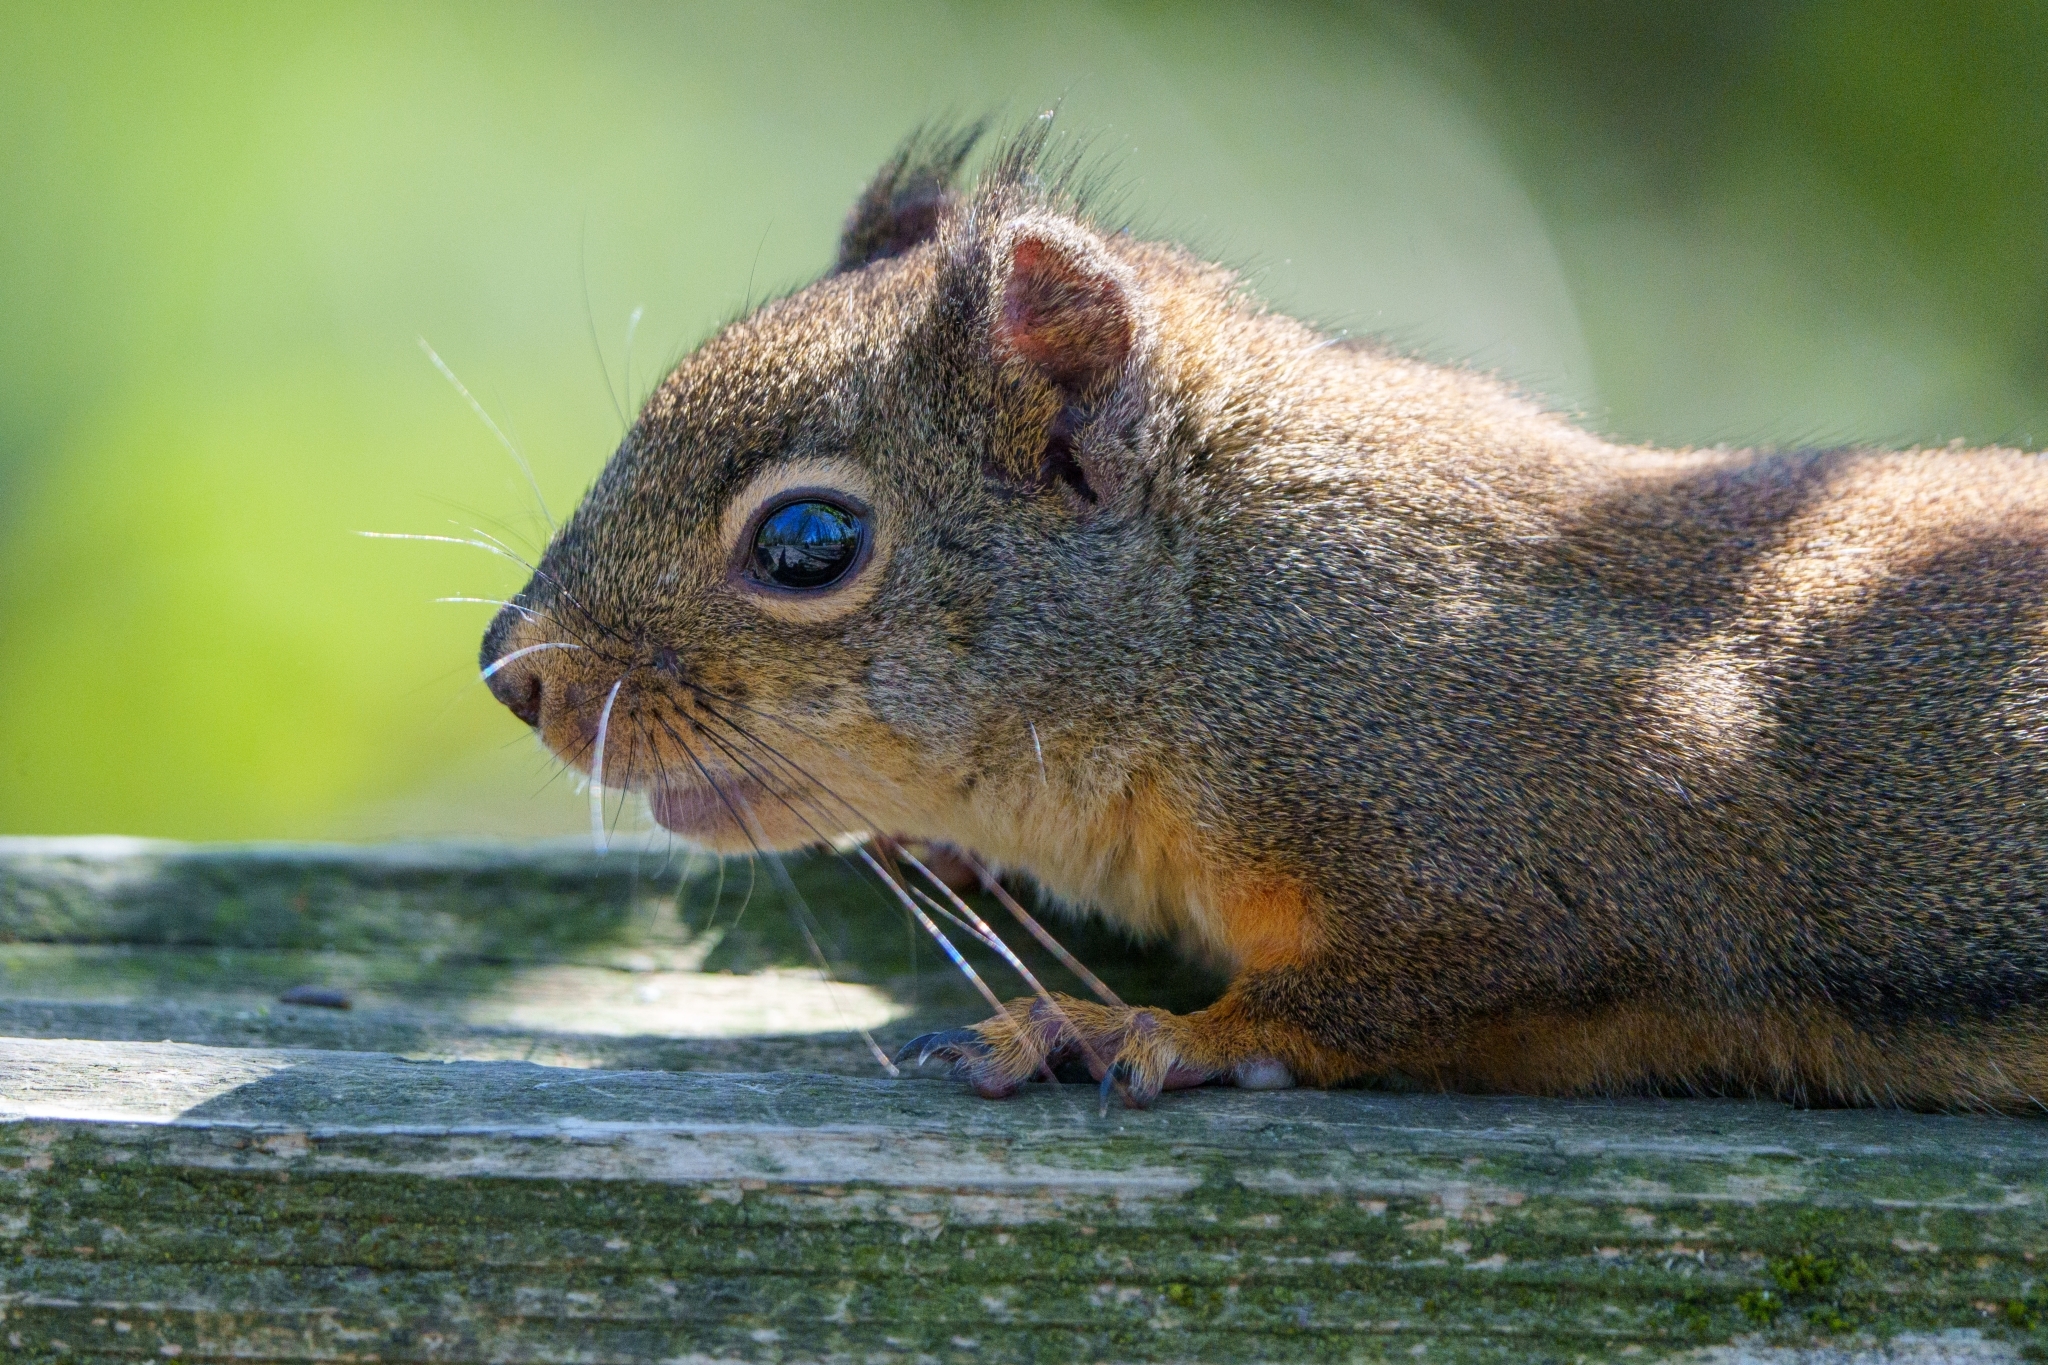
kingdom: Animalia
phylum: Chordata
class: Mammalia
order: Rodentia
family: Sciuridae
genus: Tamiasciurus
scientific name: Tamiasciurus douglasii
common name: Douglas's squirrel
